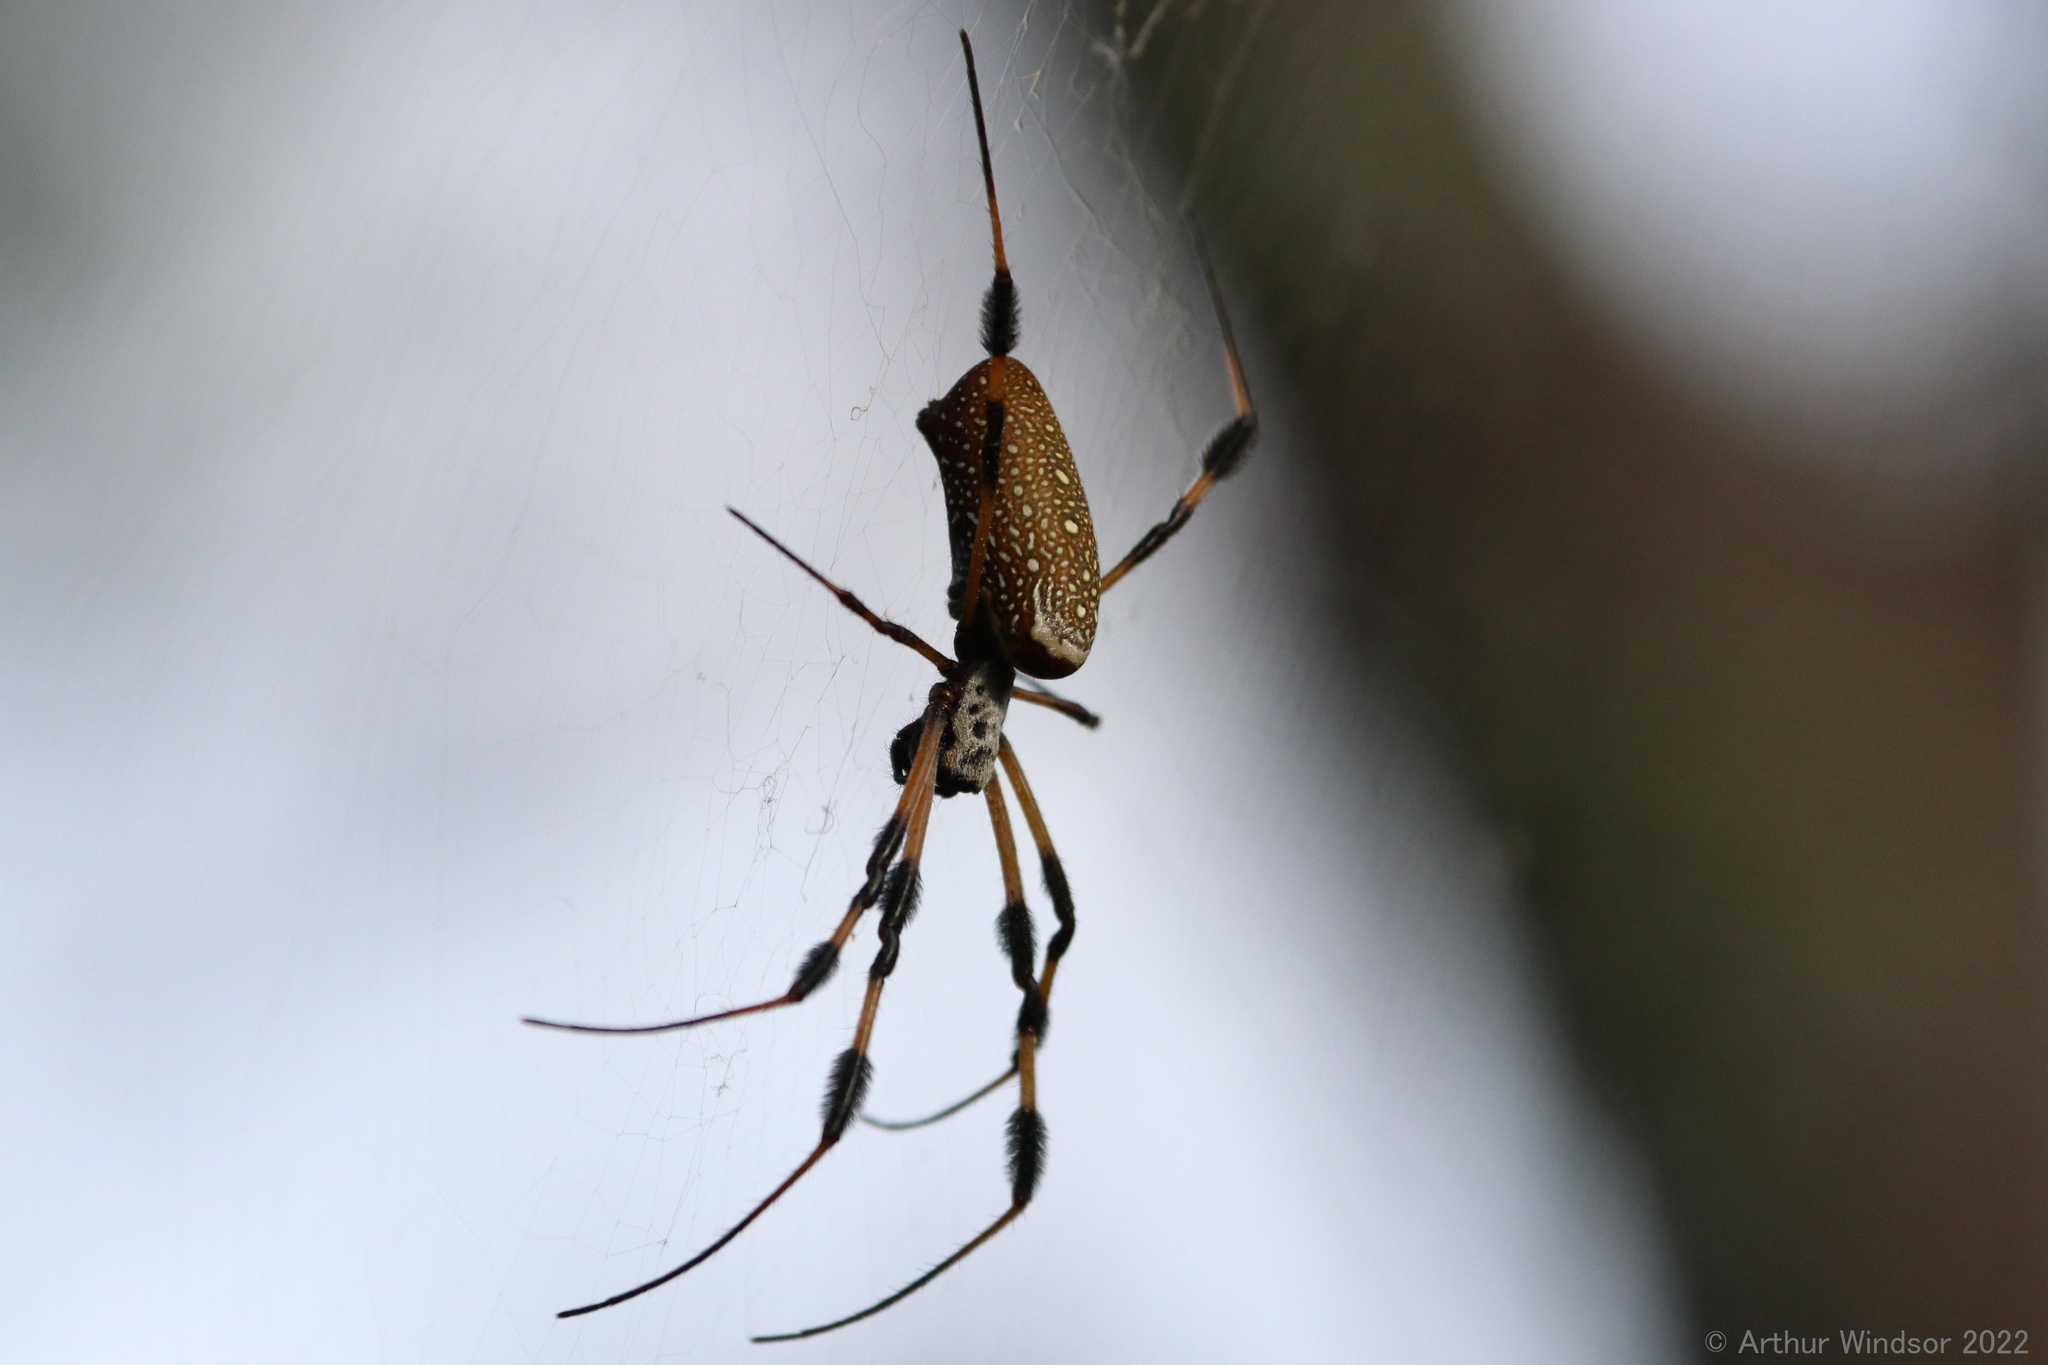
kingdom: Animalia
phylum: Arthropoda
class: Arachnida
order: Araneae
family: Araneidae
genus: Trichonephila
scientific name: Trichonephila clavipes
